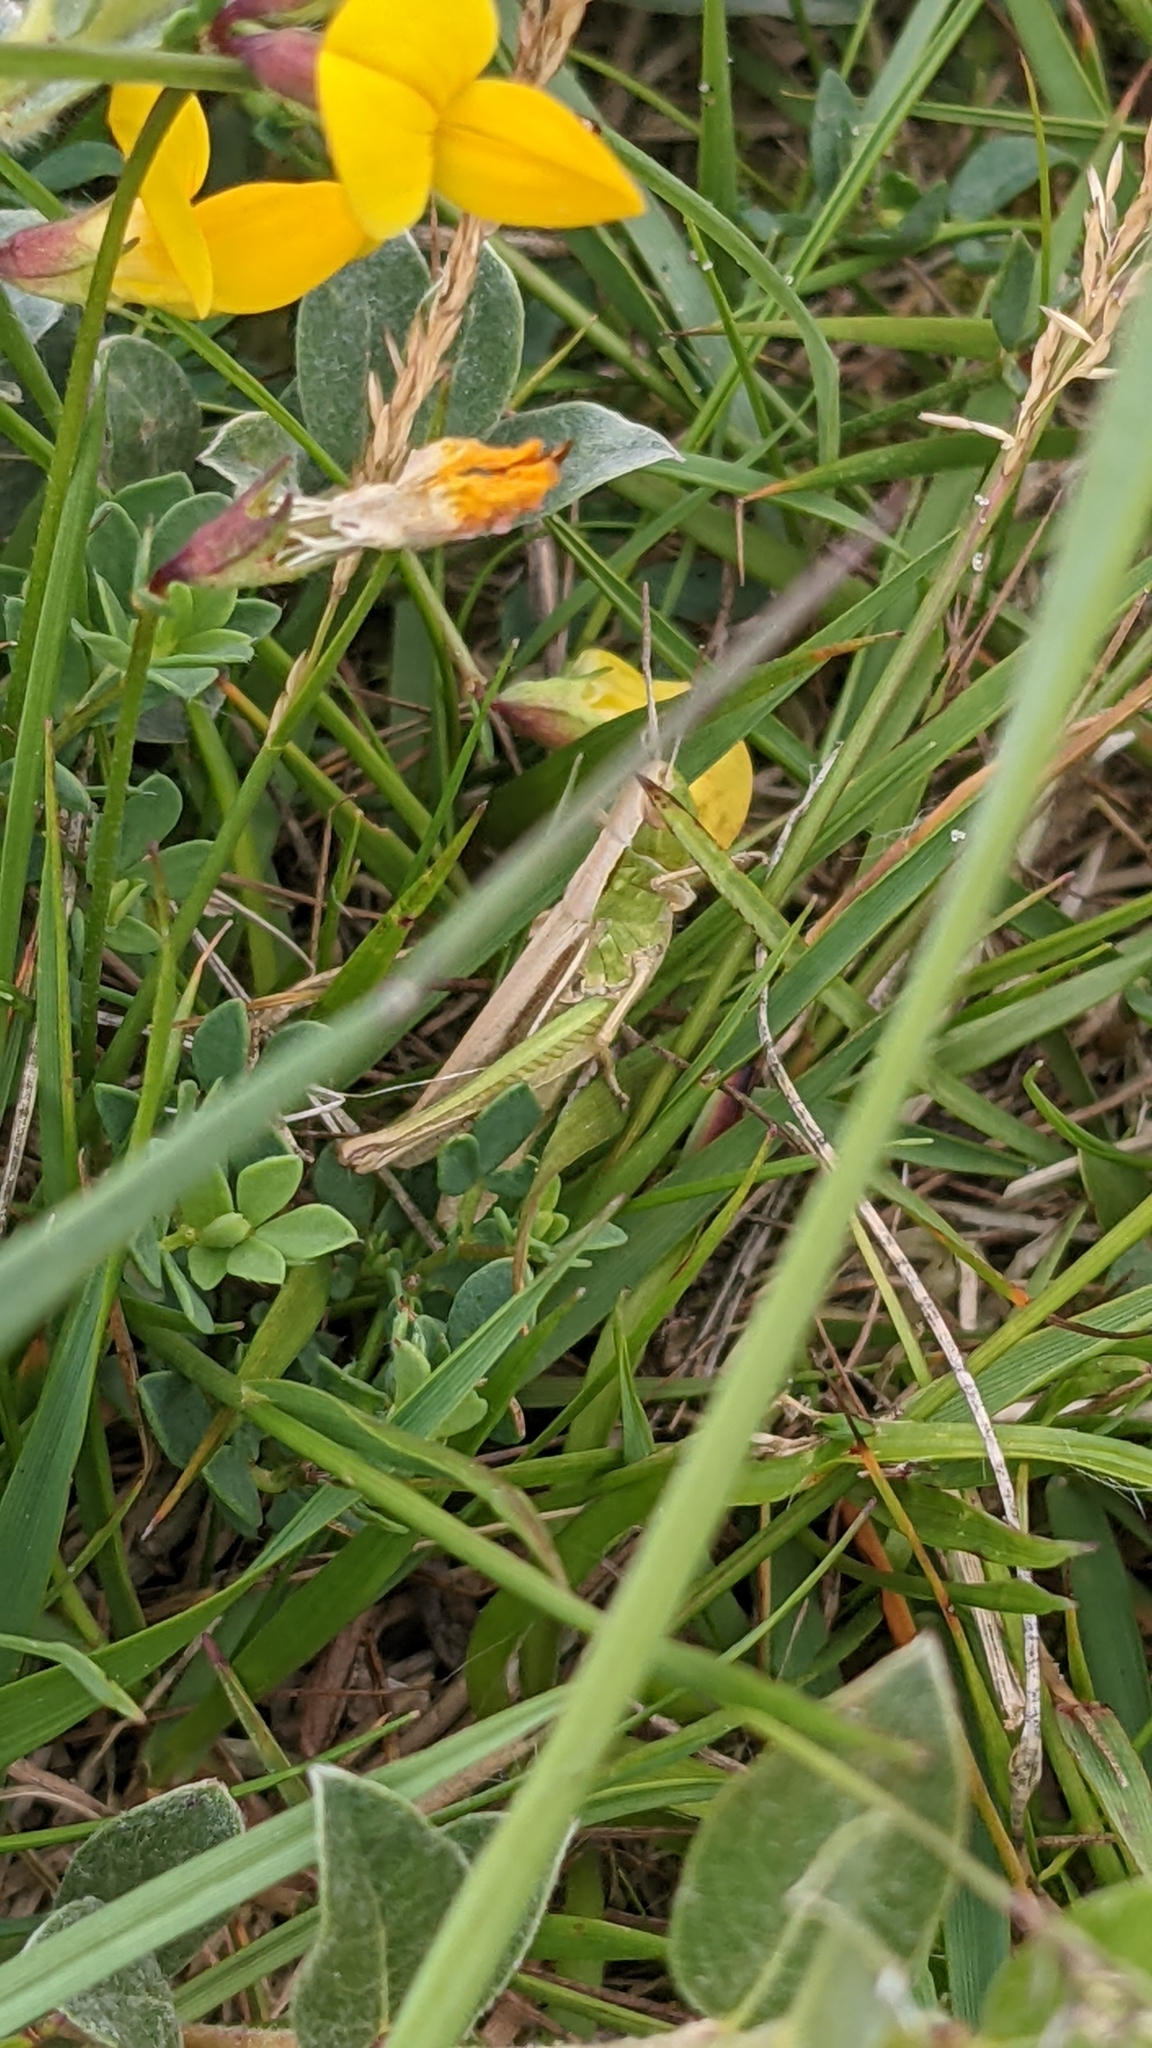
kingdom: Animalia
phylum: Arthropoda
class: Insecta
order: Orthoptera
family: Acrididae
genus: Chorthippus
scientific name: Chorthippus albomarginatus
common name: Lesser marsh grasshopper
